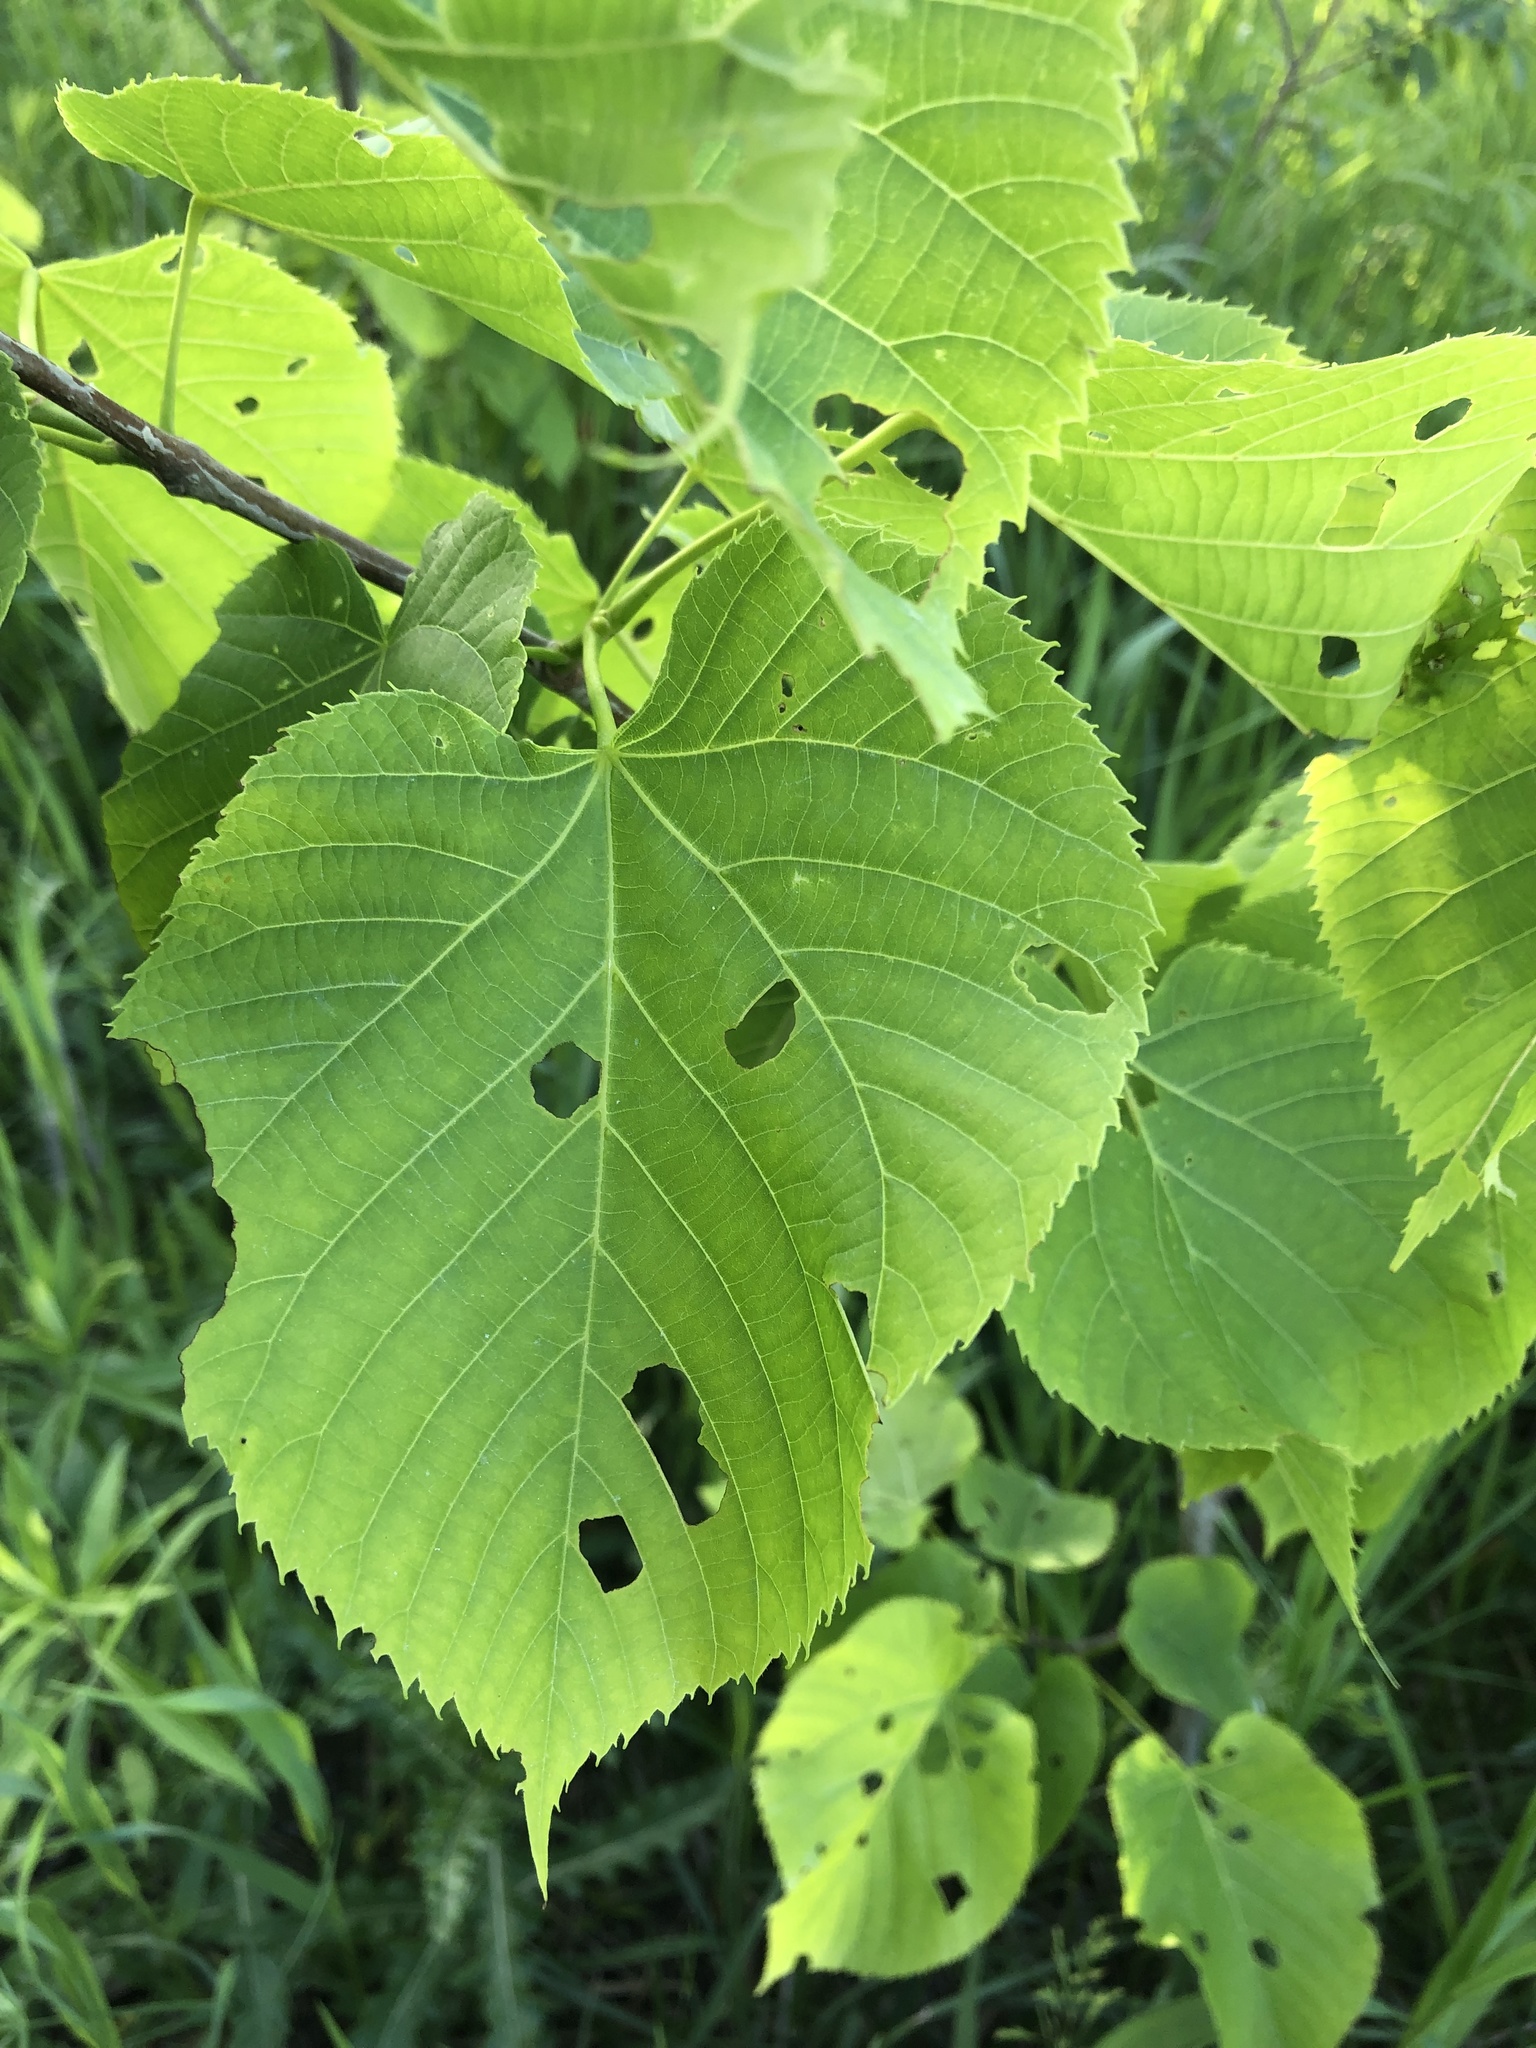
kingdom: Plantae
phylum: Tracheophyta
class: Magnoliopsida
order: Malvales
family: Malvaceae
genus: Tilia
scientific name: Tilia americana
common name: Basswood
